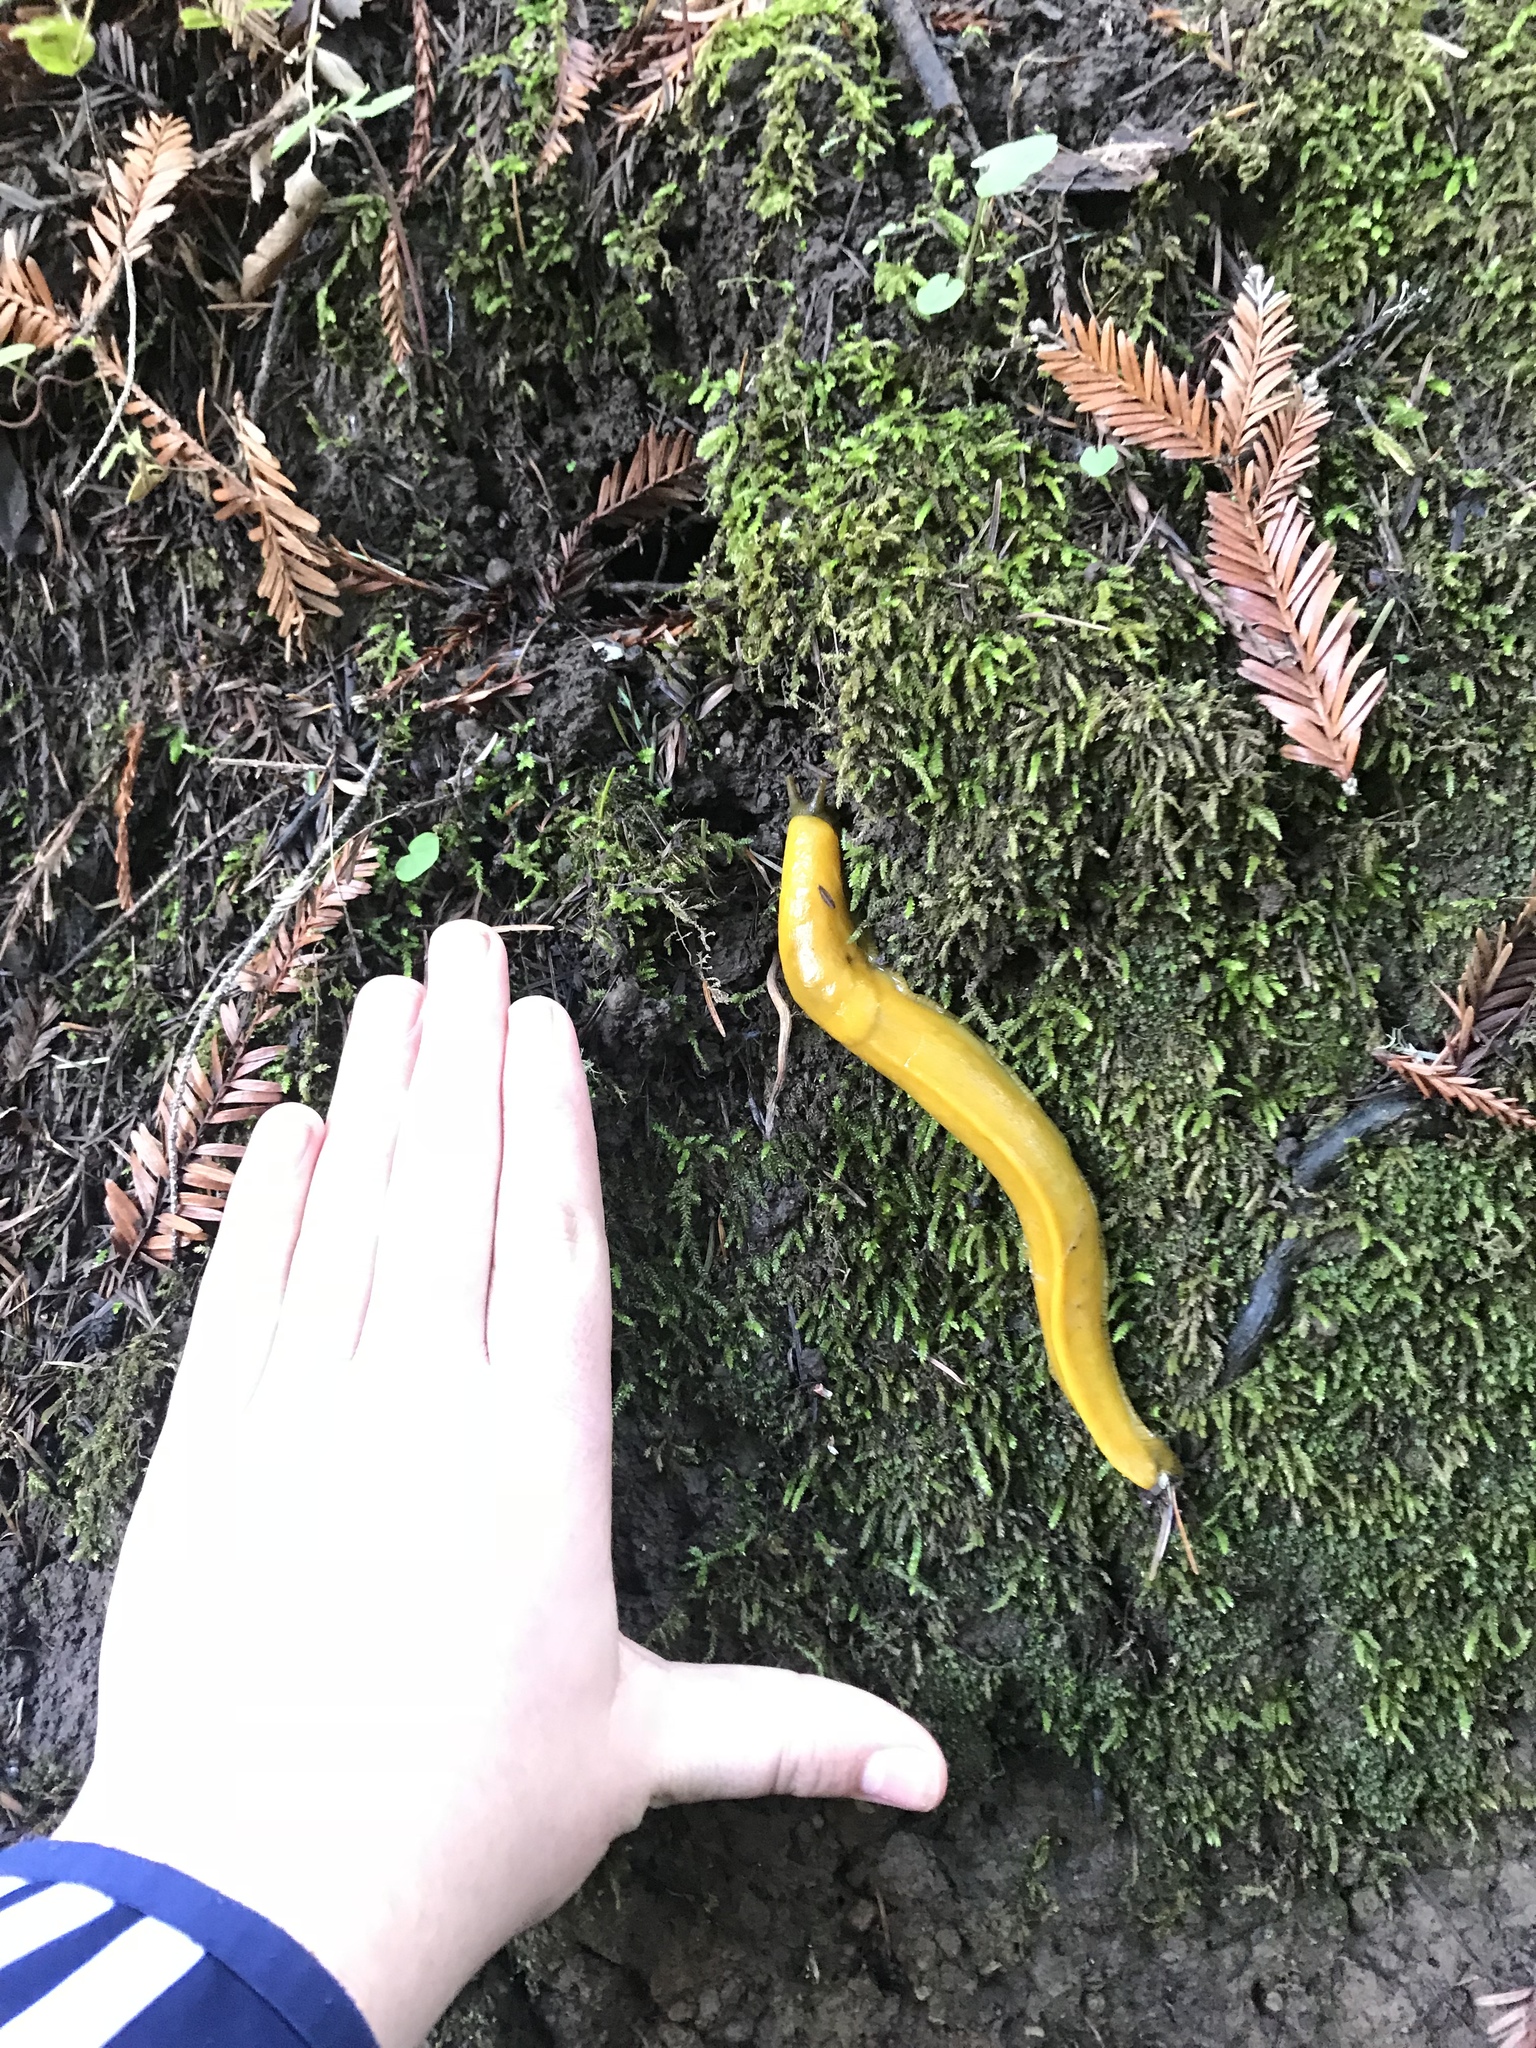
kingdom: Animalia
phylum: Mollusca
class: Gastropoda
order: Stylommatophora
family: Ariolimacidae
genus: Ariolimax
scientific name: Ariolimax buttoni
